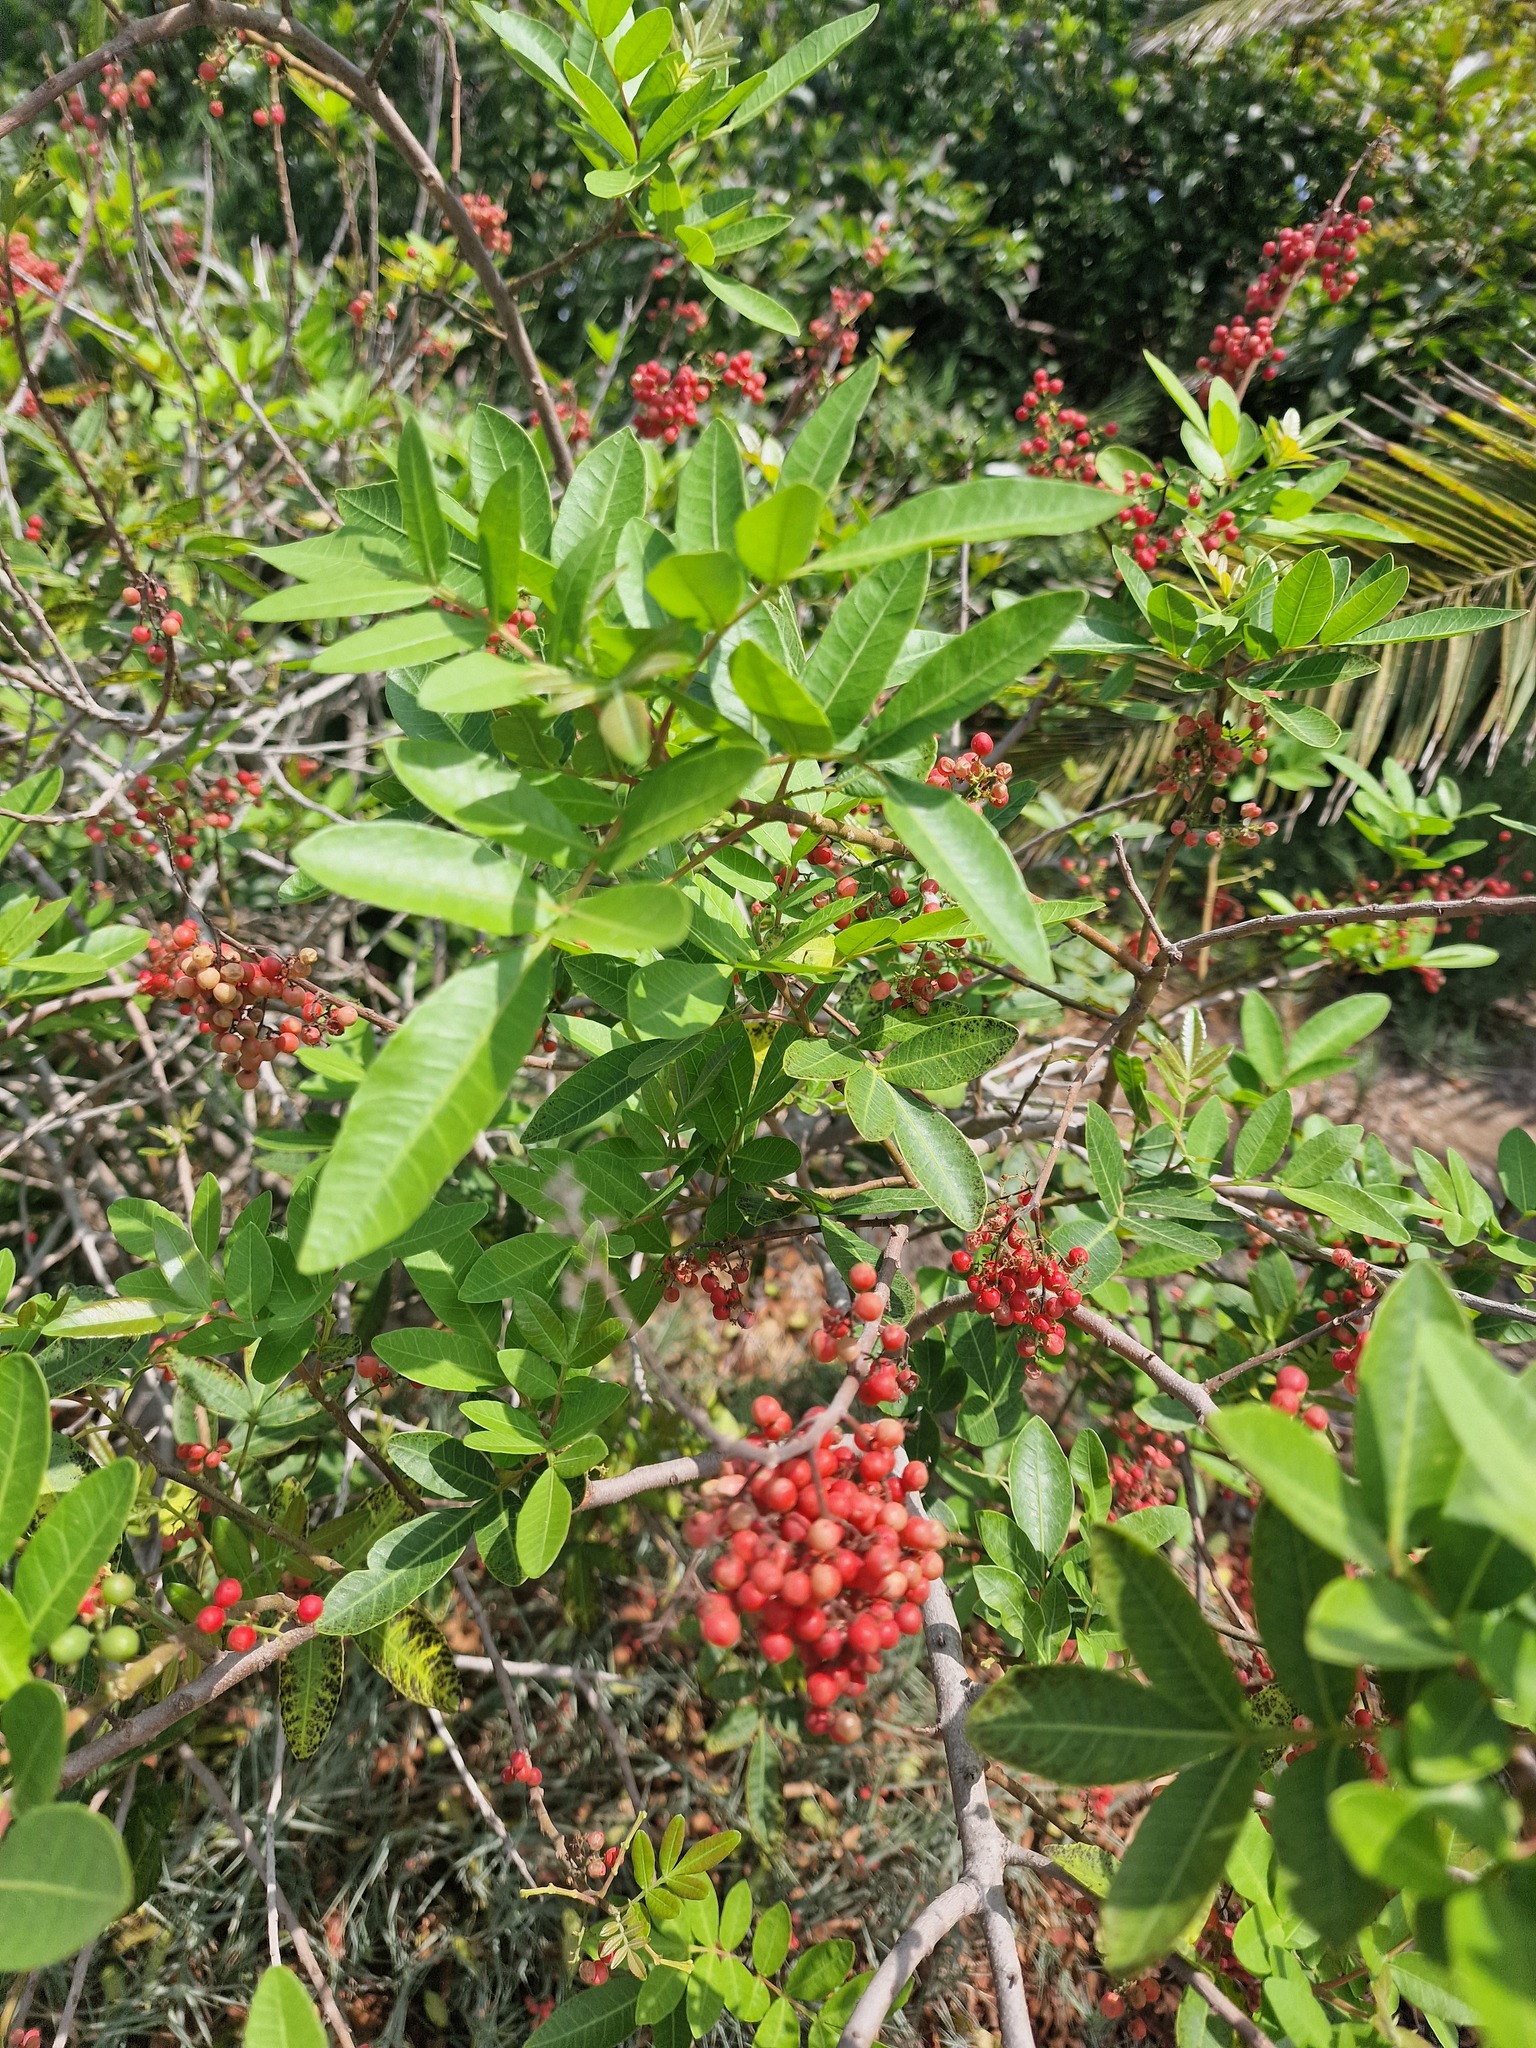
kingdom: Plantae
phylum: Tracheophyta
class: Magnoliopsida
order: Sapindales
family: Anacardiaceae
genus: Schinus
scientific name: Schinus terebinthifolia
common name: Brazilian peppertree
